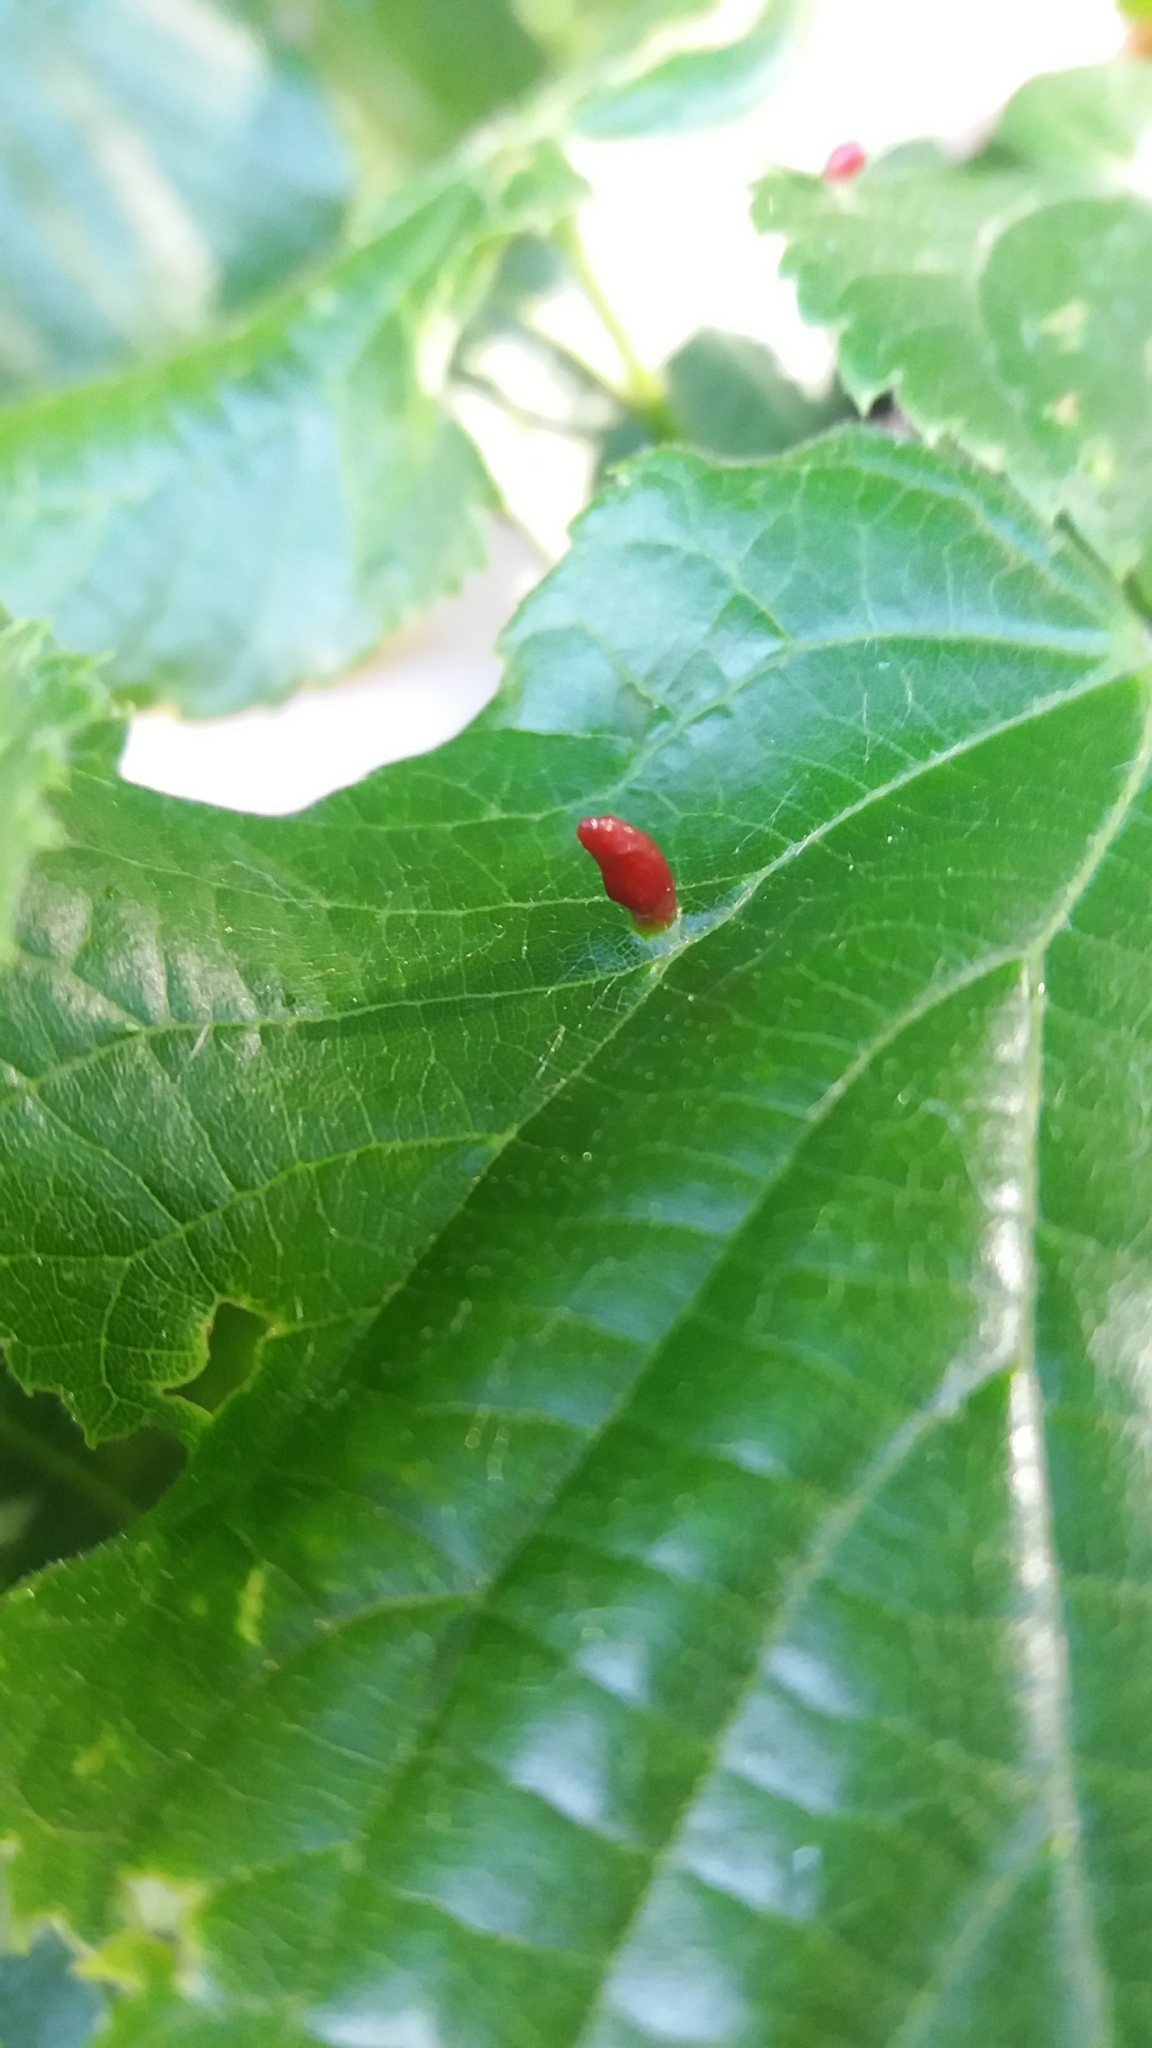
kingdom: Animalia
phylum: Arthropoda
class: Arachnida
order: Trombidiformes
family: Eriophyidae
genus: Eriophyes
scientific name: Eriophyes tiliae
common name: Red nail gall mite
